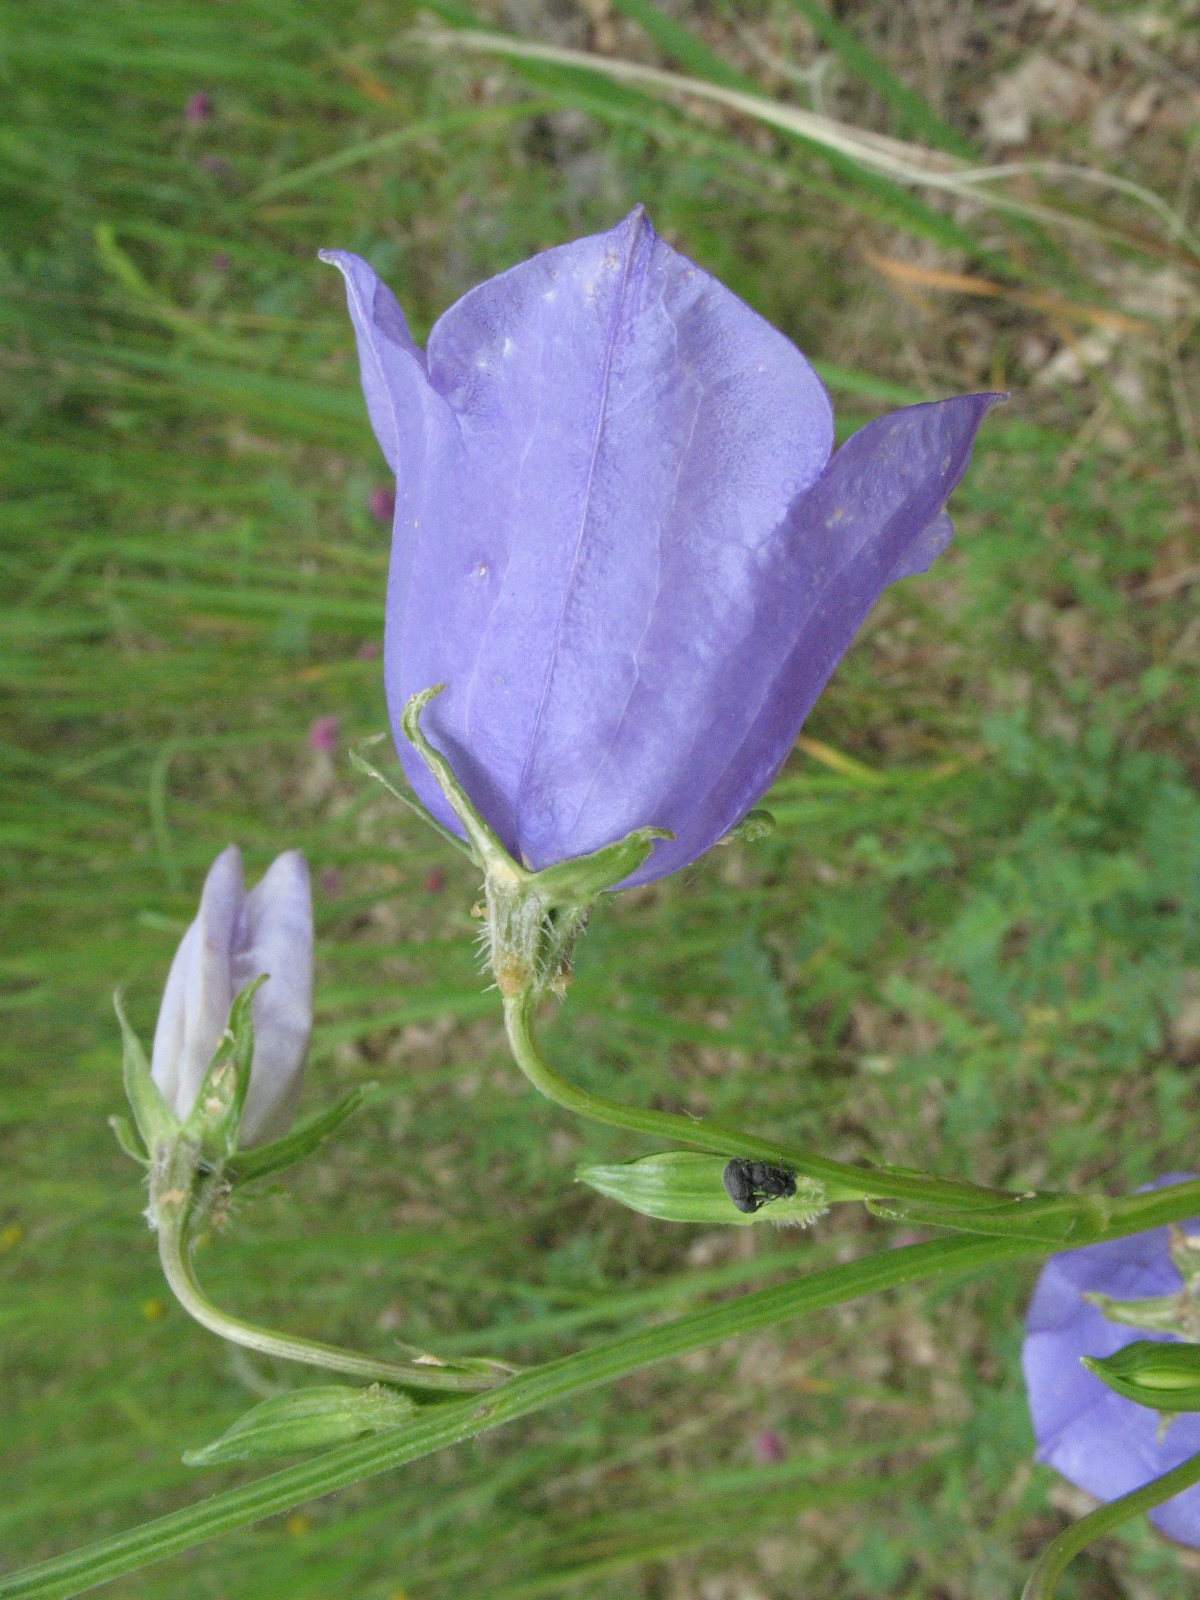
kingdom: Plantae
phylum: Tracheophyta
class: Magnoliopsida
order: Asterales
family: Campanulaceae
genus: Campanula
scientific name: Campanula persicifolia
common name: Peach-leaved bellflower
